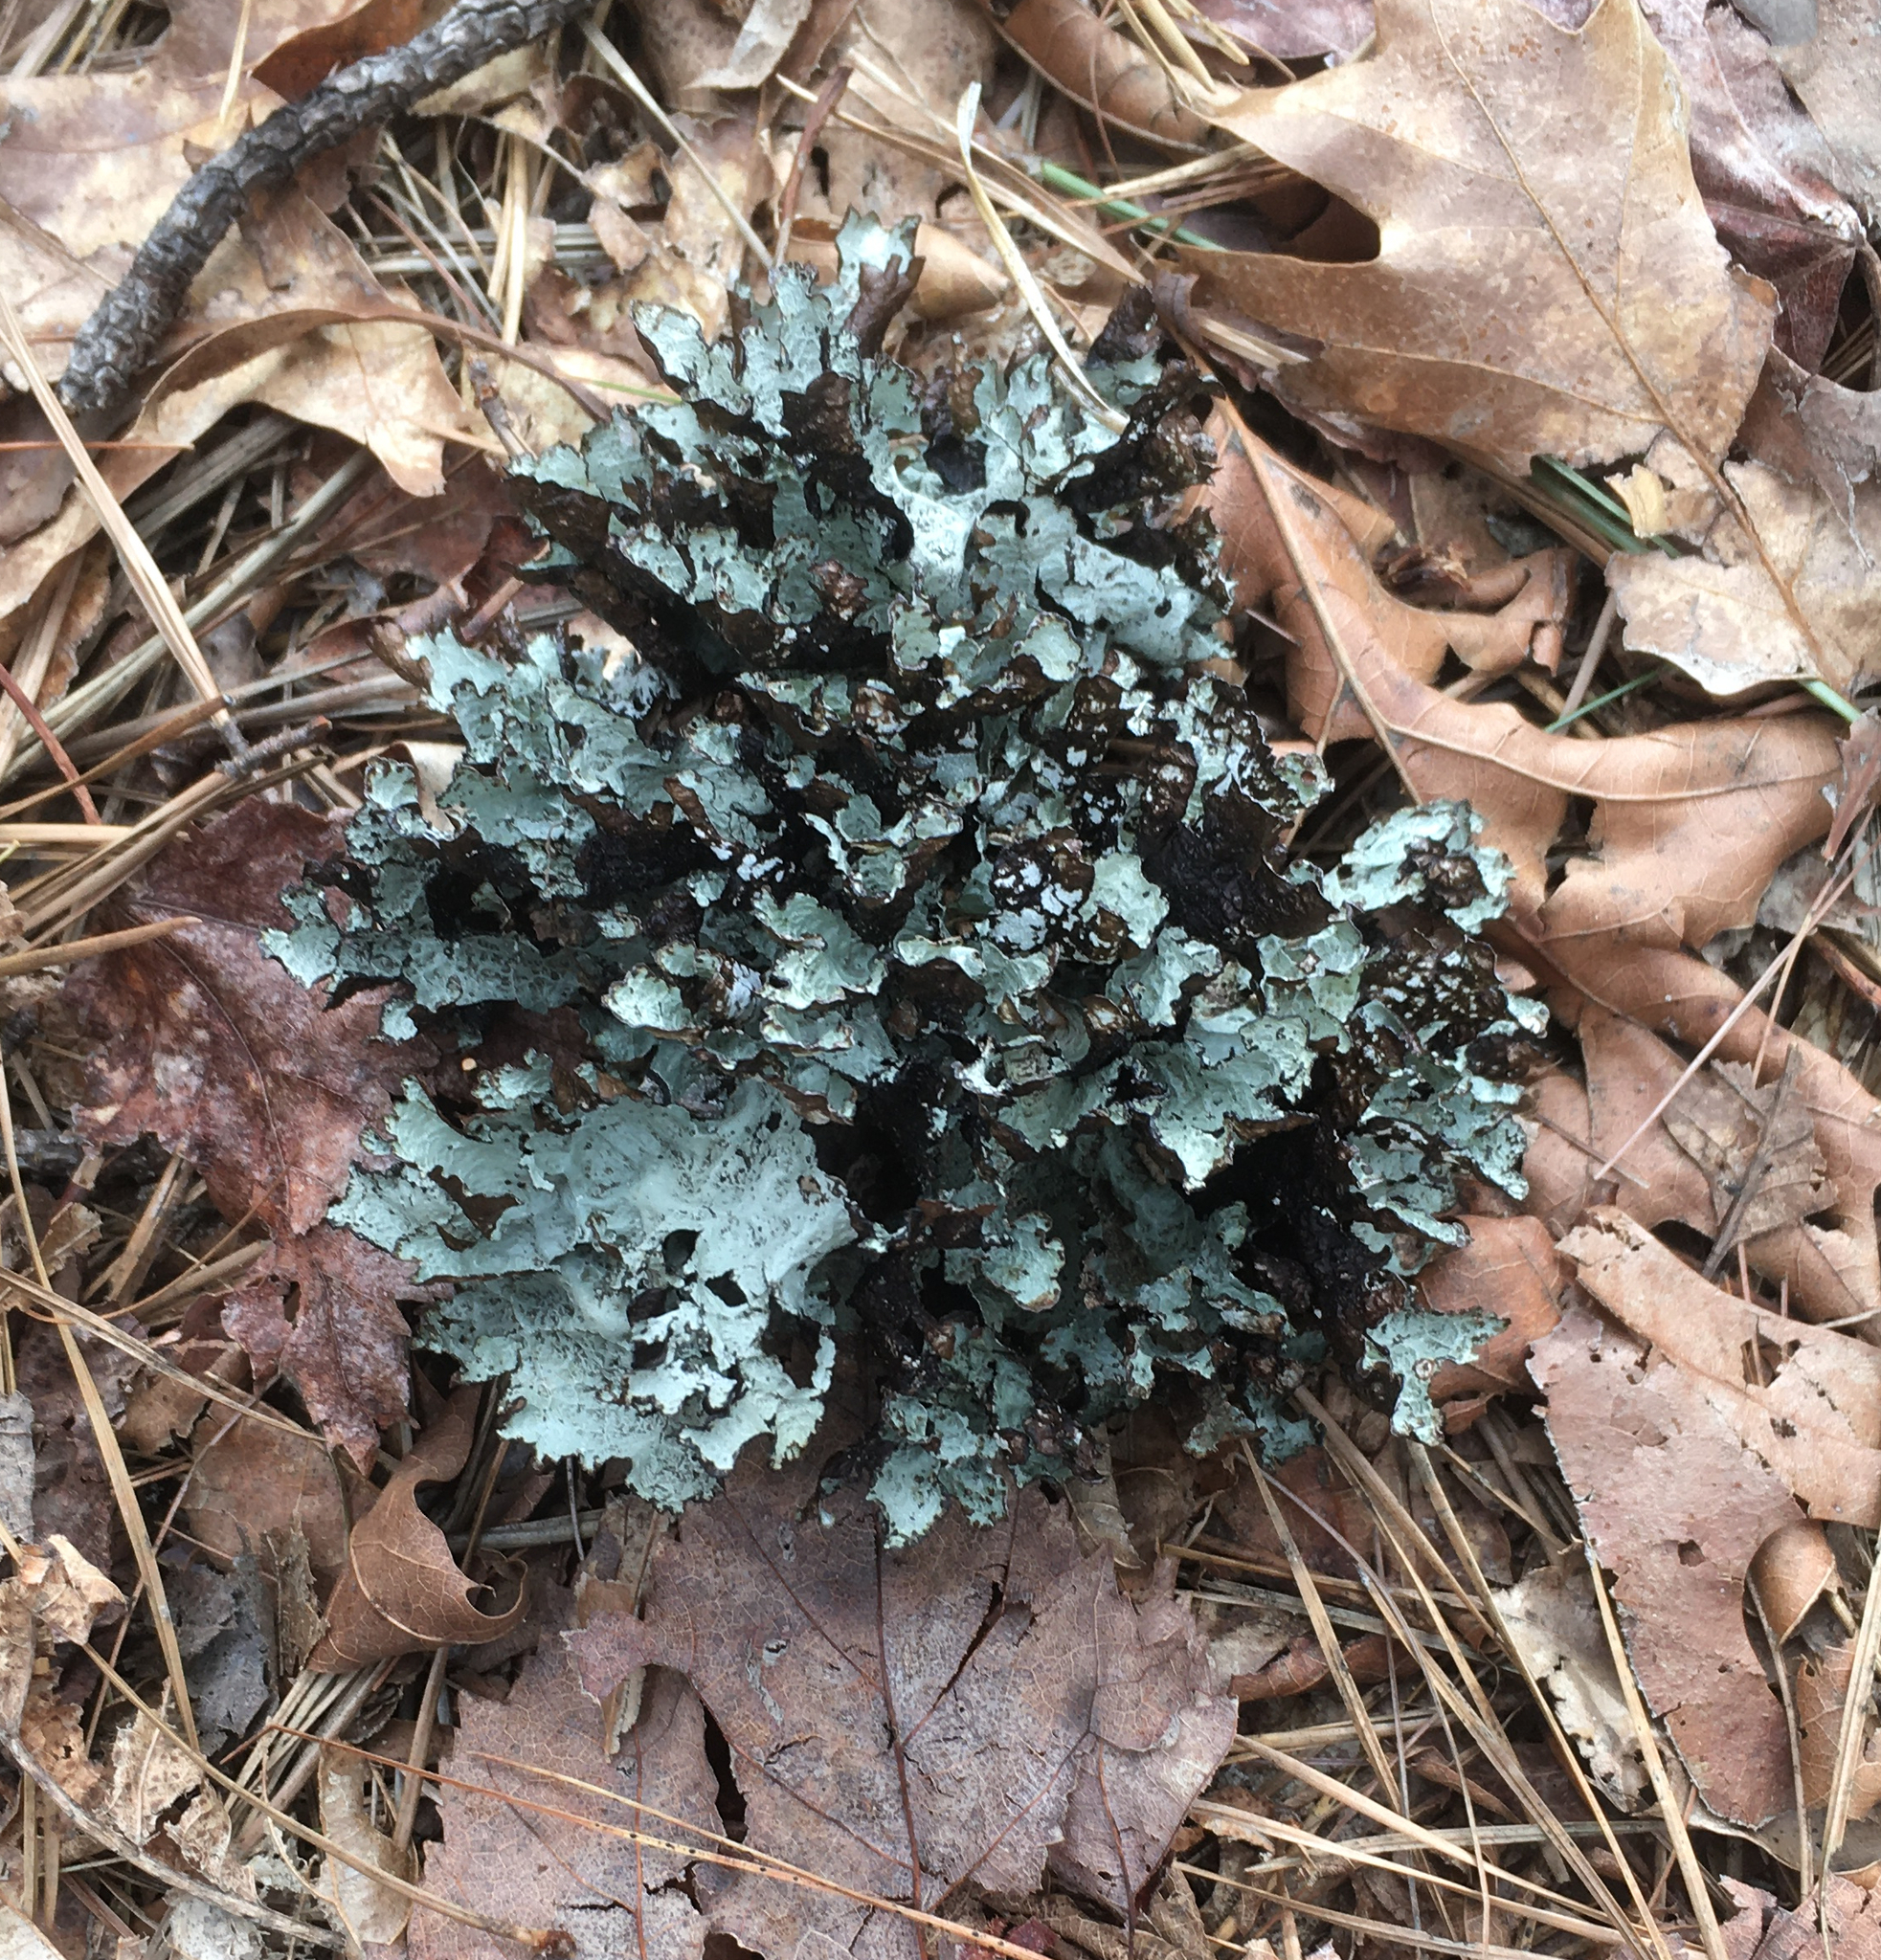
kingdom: Fungi
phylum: Ascomycota
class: Lecanoromycetes
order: Lecanorales
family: Parmeliaceae
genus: Platismatia
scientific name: Platismatia tuckermanii
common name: Crumpled rag lichen
